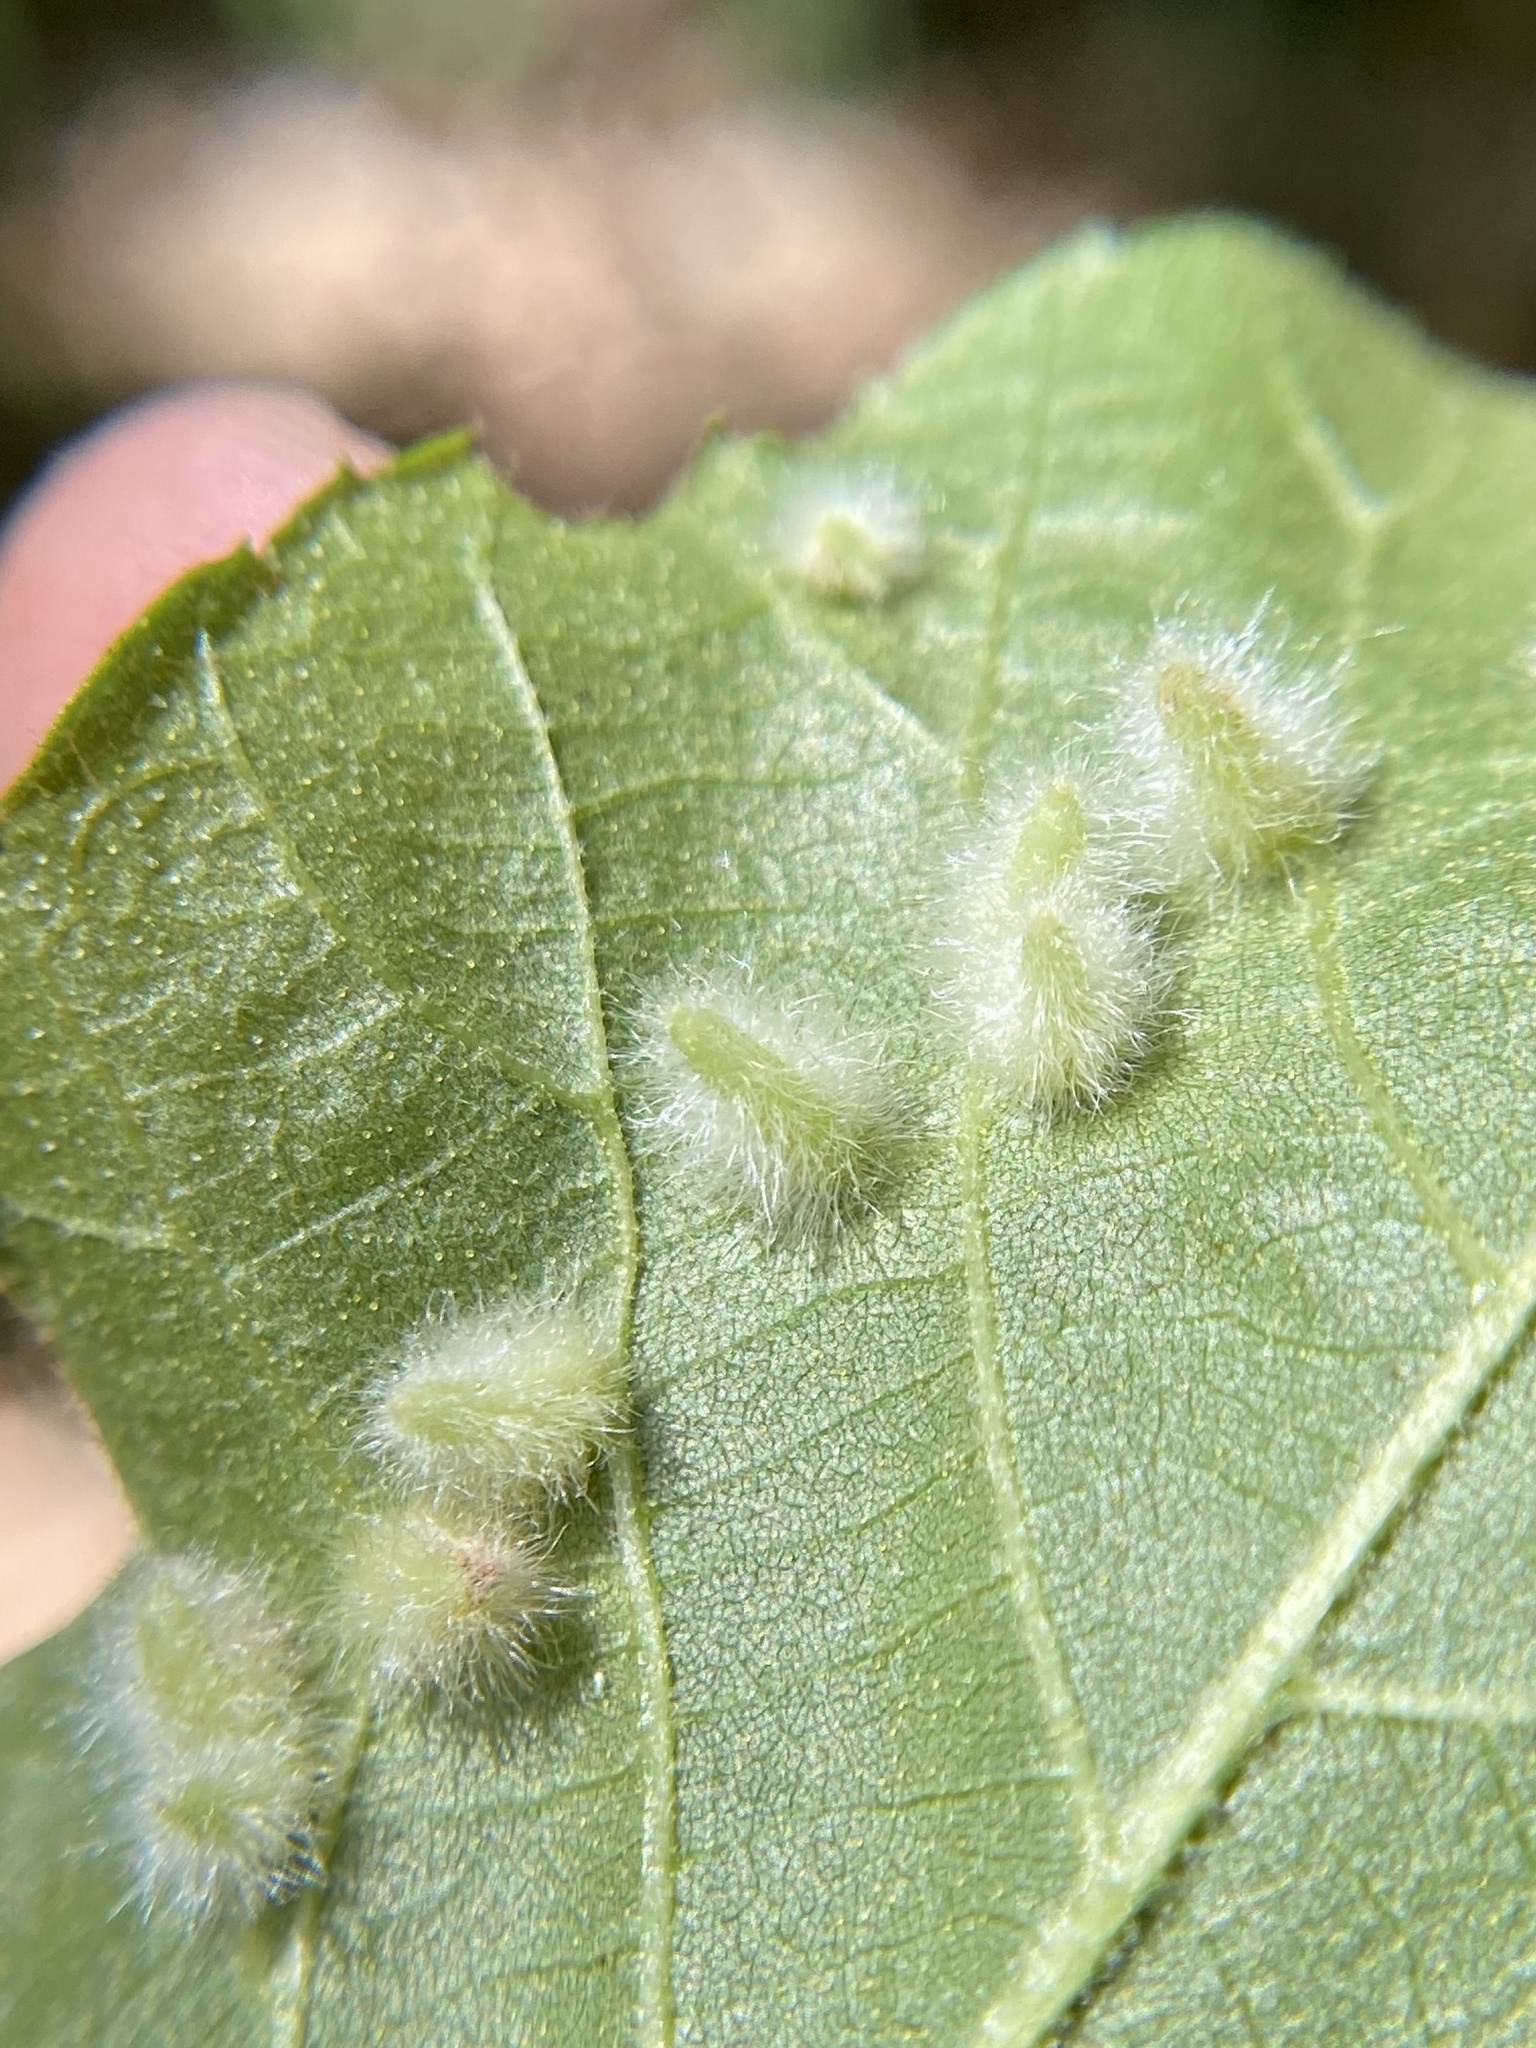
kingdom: Animalia
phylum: Arthropoda
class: Insecta
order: Diptera
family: Cecidomyiidae
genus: Caryomyia
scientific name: Caryomyia albipilosa
